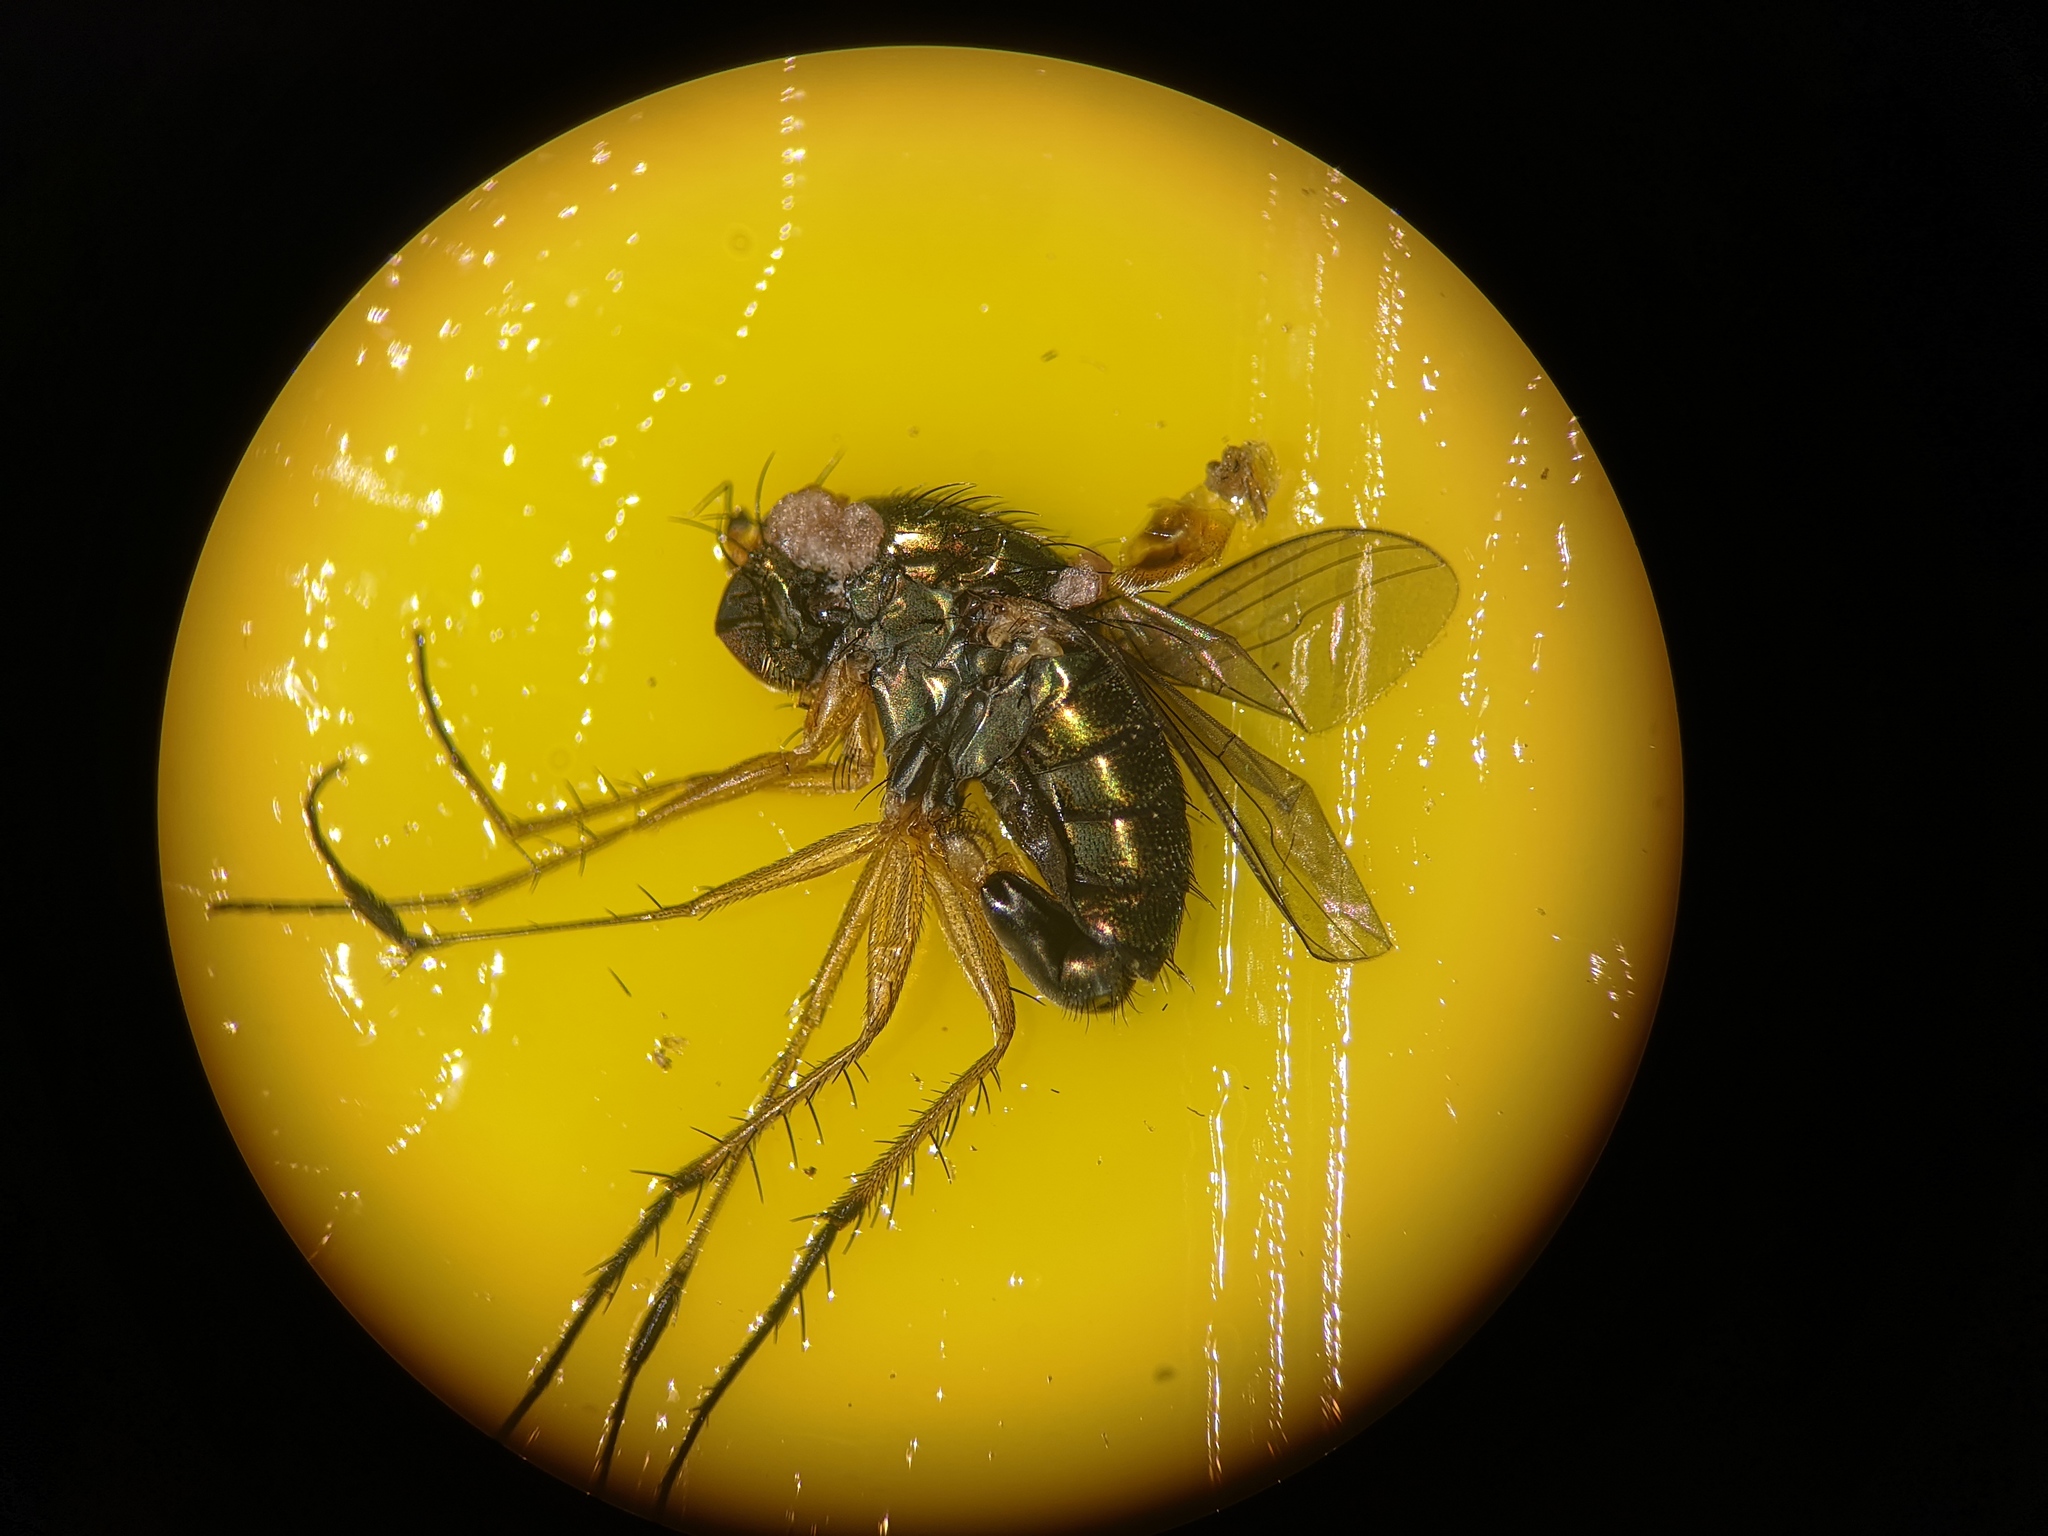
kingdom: Animalia
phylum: Arthropoda
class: Insecta
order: Diptera
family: Dolichopodidae
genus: Dolichopus
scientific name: Dolichopus plumipes
